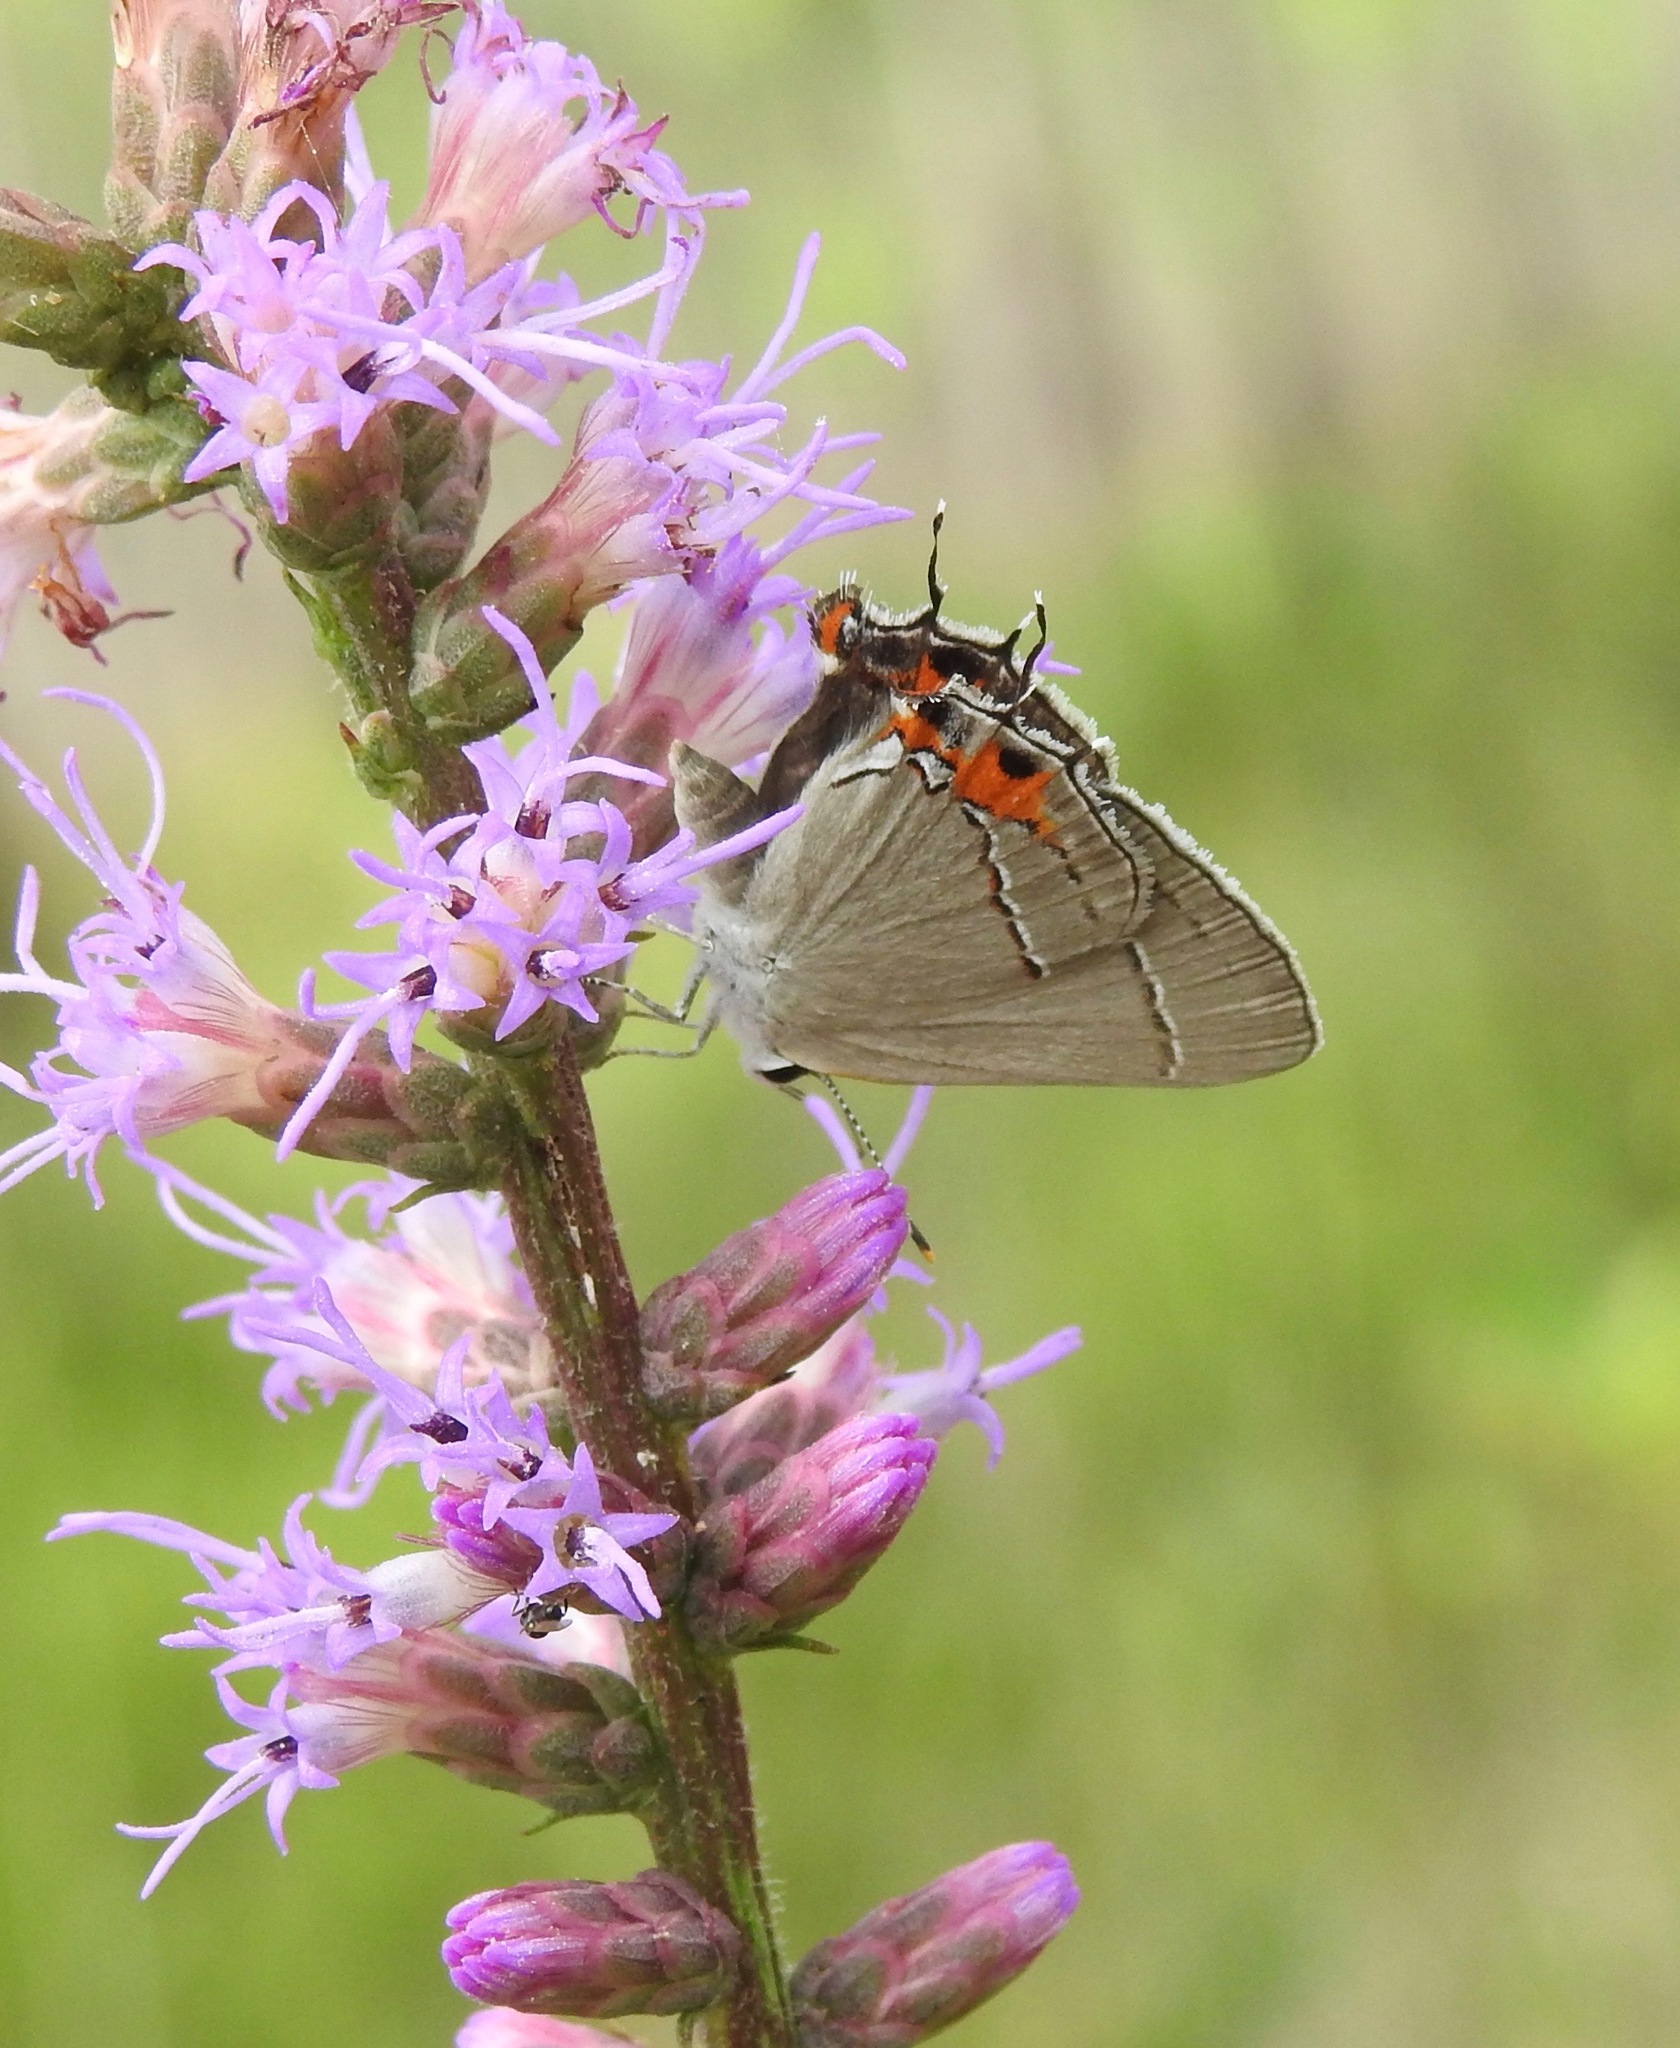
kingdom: Animalia
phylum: Arthropoda
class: Insecta
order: Lepidoptera
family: Lycaenidae
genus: Strymon
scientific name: Strymon melinus
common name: Gray hairstreak
